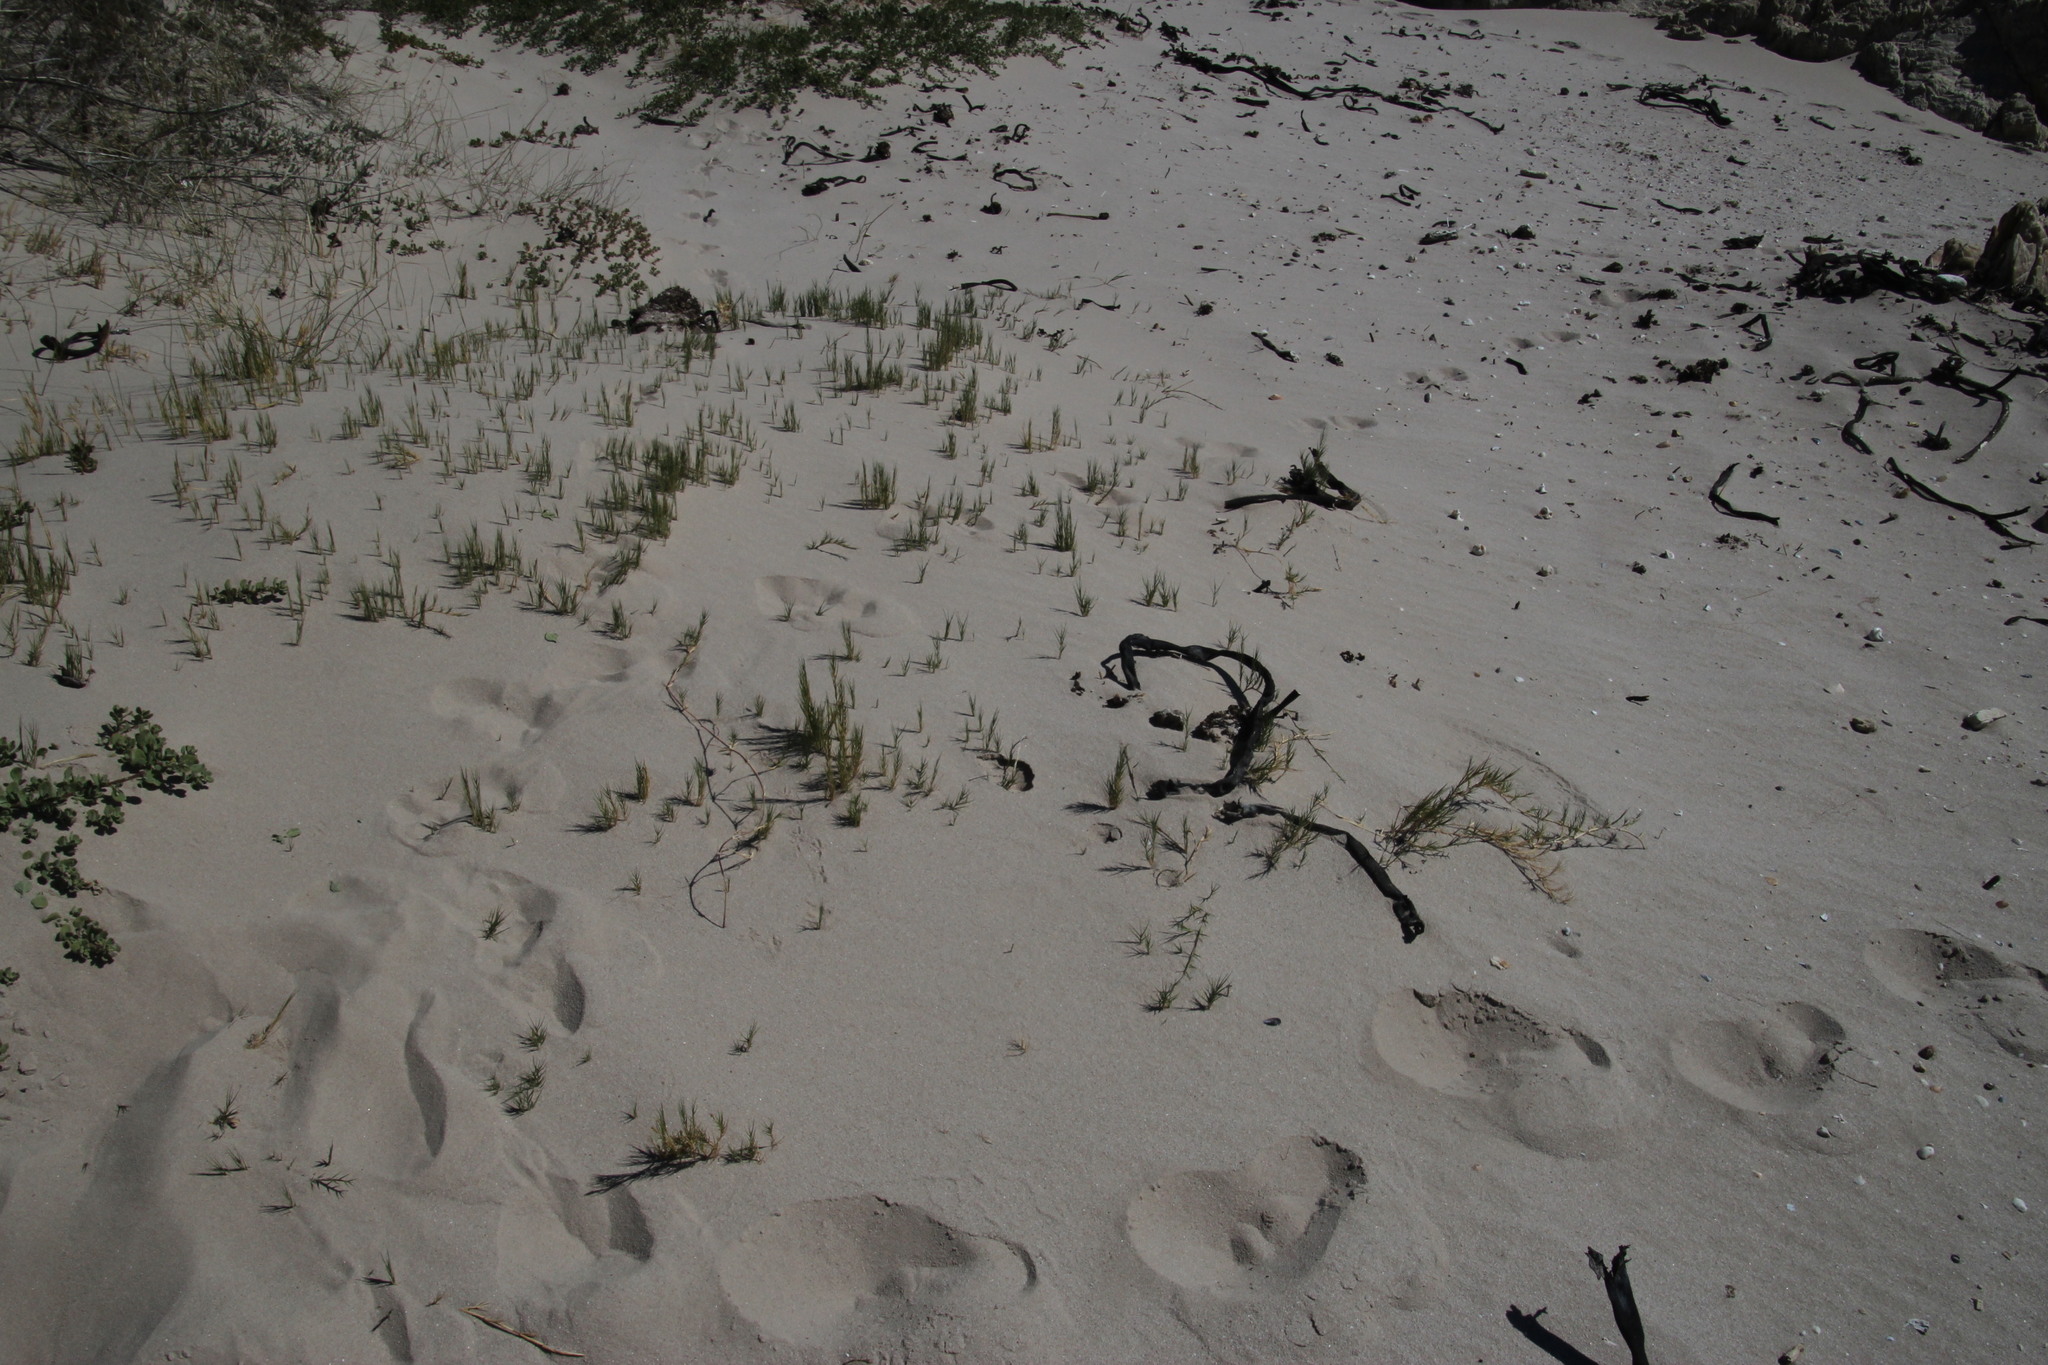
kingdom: Plantae
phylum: Tracheophyta
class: Liliopsida
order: Poales
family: Poaceae
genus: Sporobolus
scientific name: Sporobolus virginicus
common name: Beach dropseed
